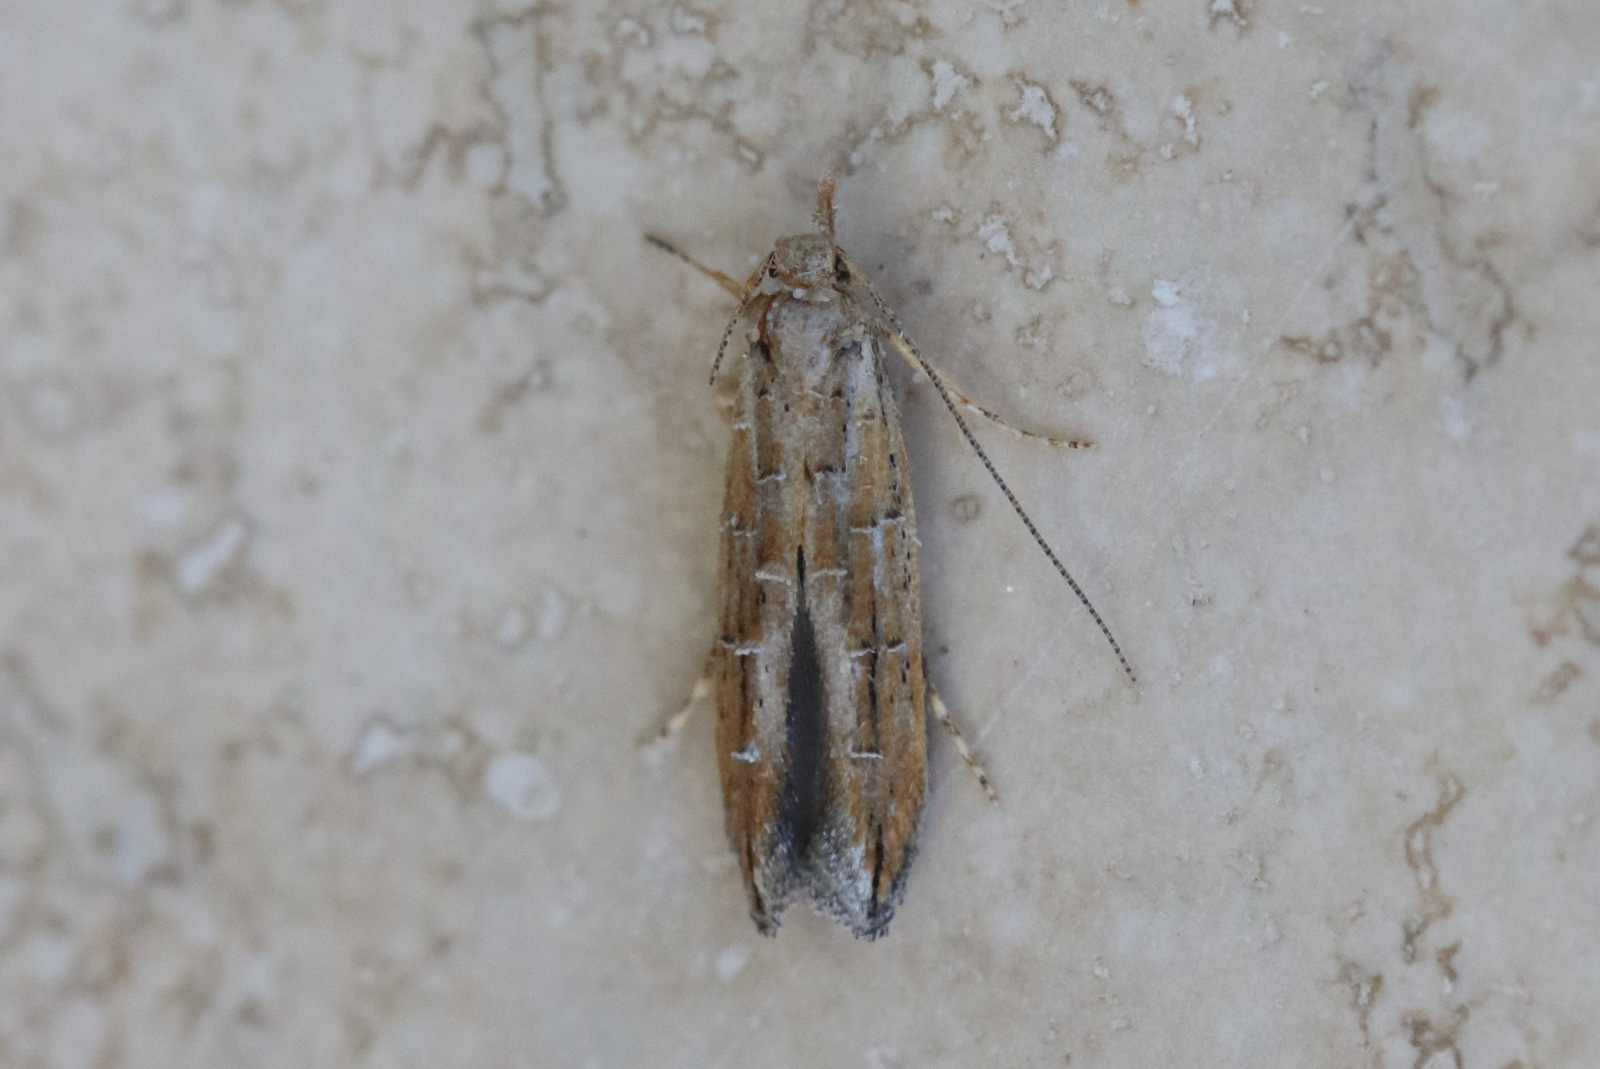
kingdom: Animalia
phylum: Arthropoda
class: Insecta
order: Lepidoptera
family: Elachistidae
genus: Leptozestis
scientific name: Leptozestis crassipalpis
